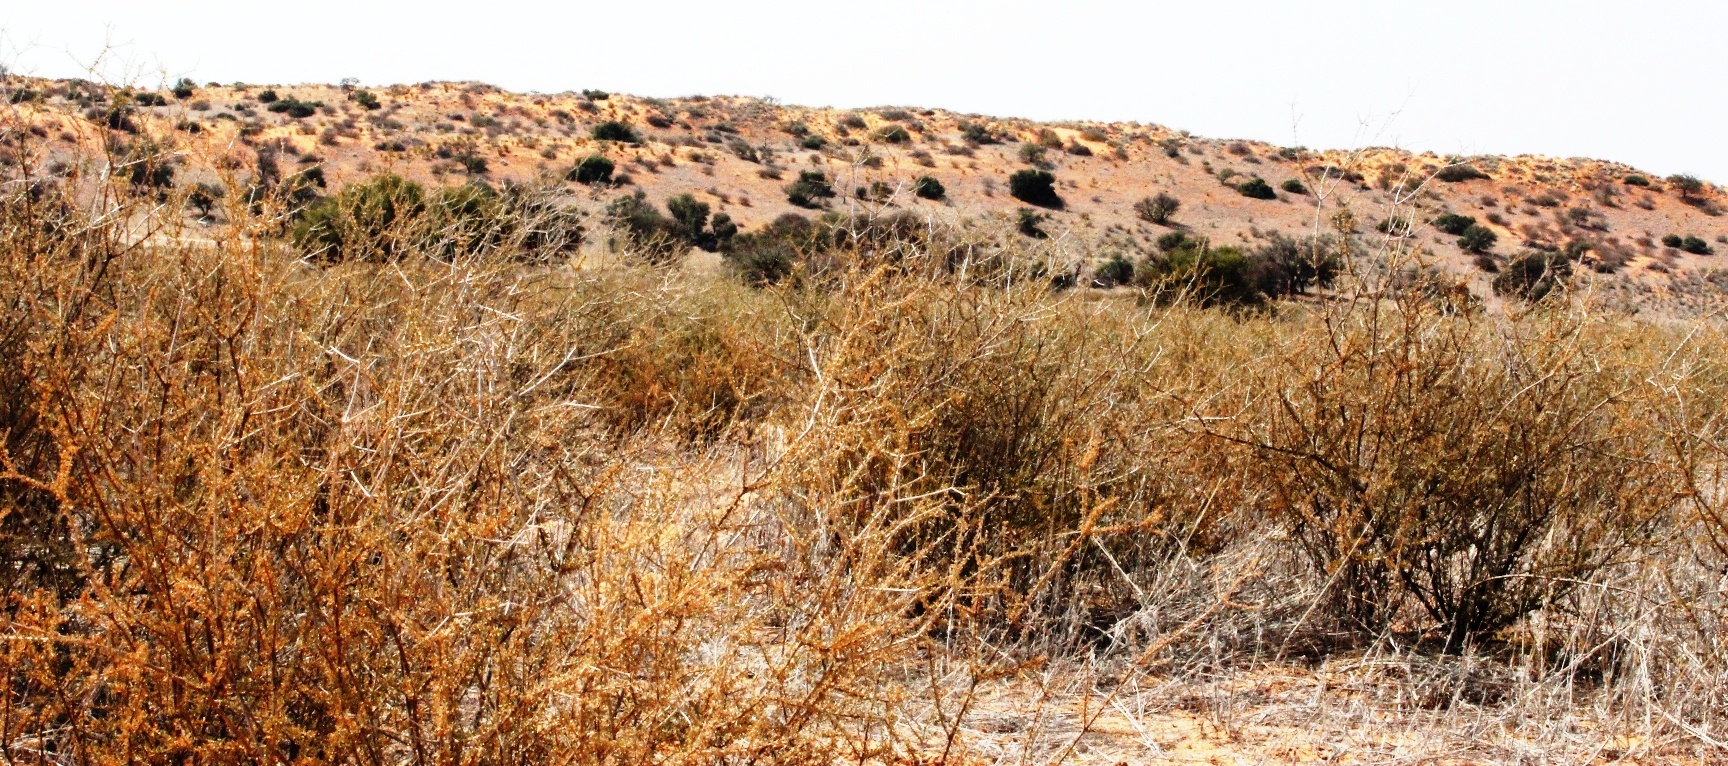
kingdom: Plantae
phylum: Tracheophyta
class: Magnoliopsida
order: Lamiales
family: Bignoniaceae
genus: Rhigozum
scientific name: Rhigozum trichotomum
